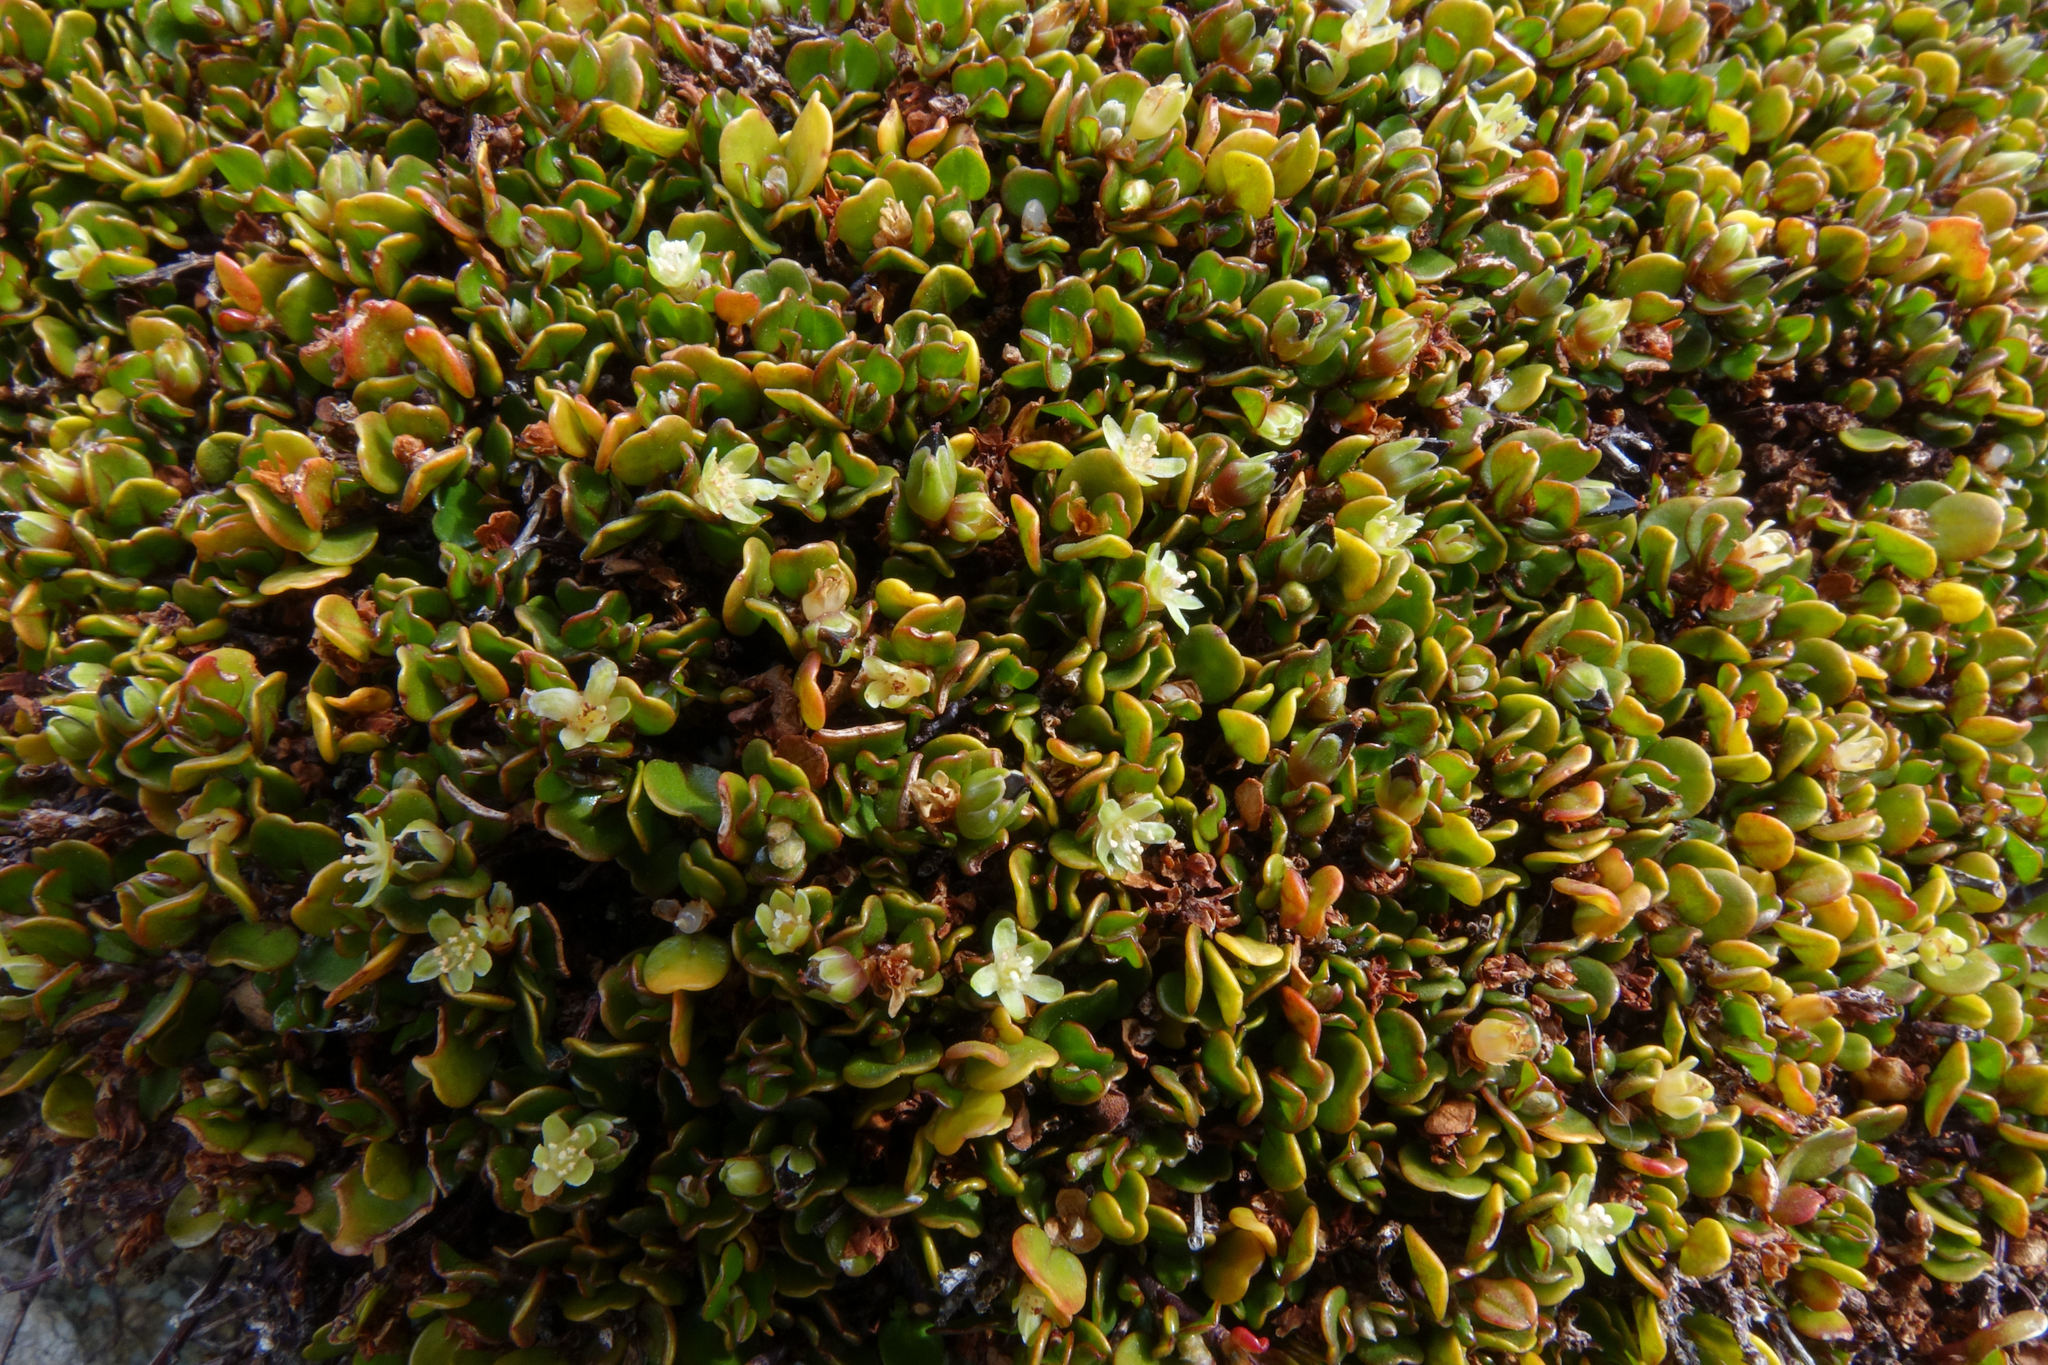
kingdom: Plantae
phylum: Tracheophyta
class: Magnoliopsida
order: Caryophyllales
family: Polygonaceae
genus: Muehlenbeckia
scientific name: Muehlenbeckia axillaris
